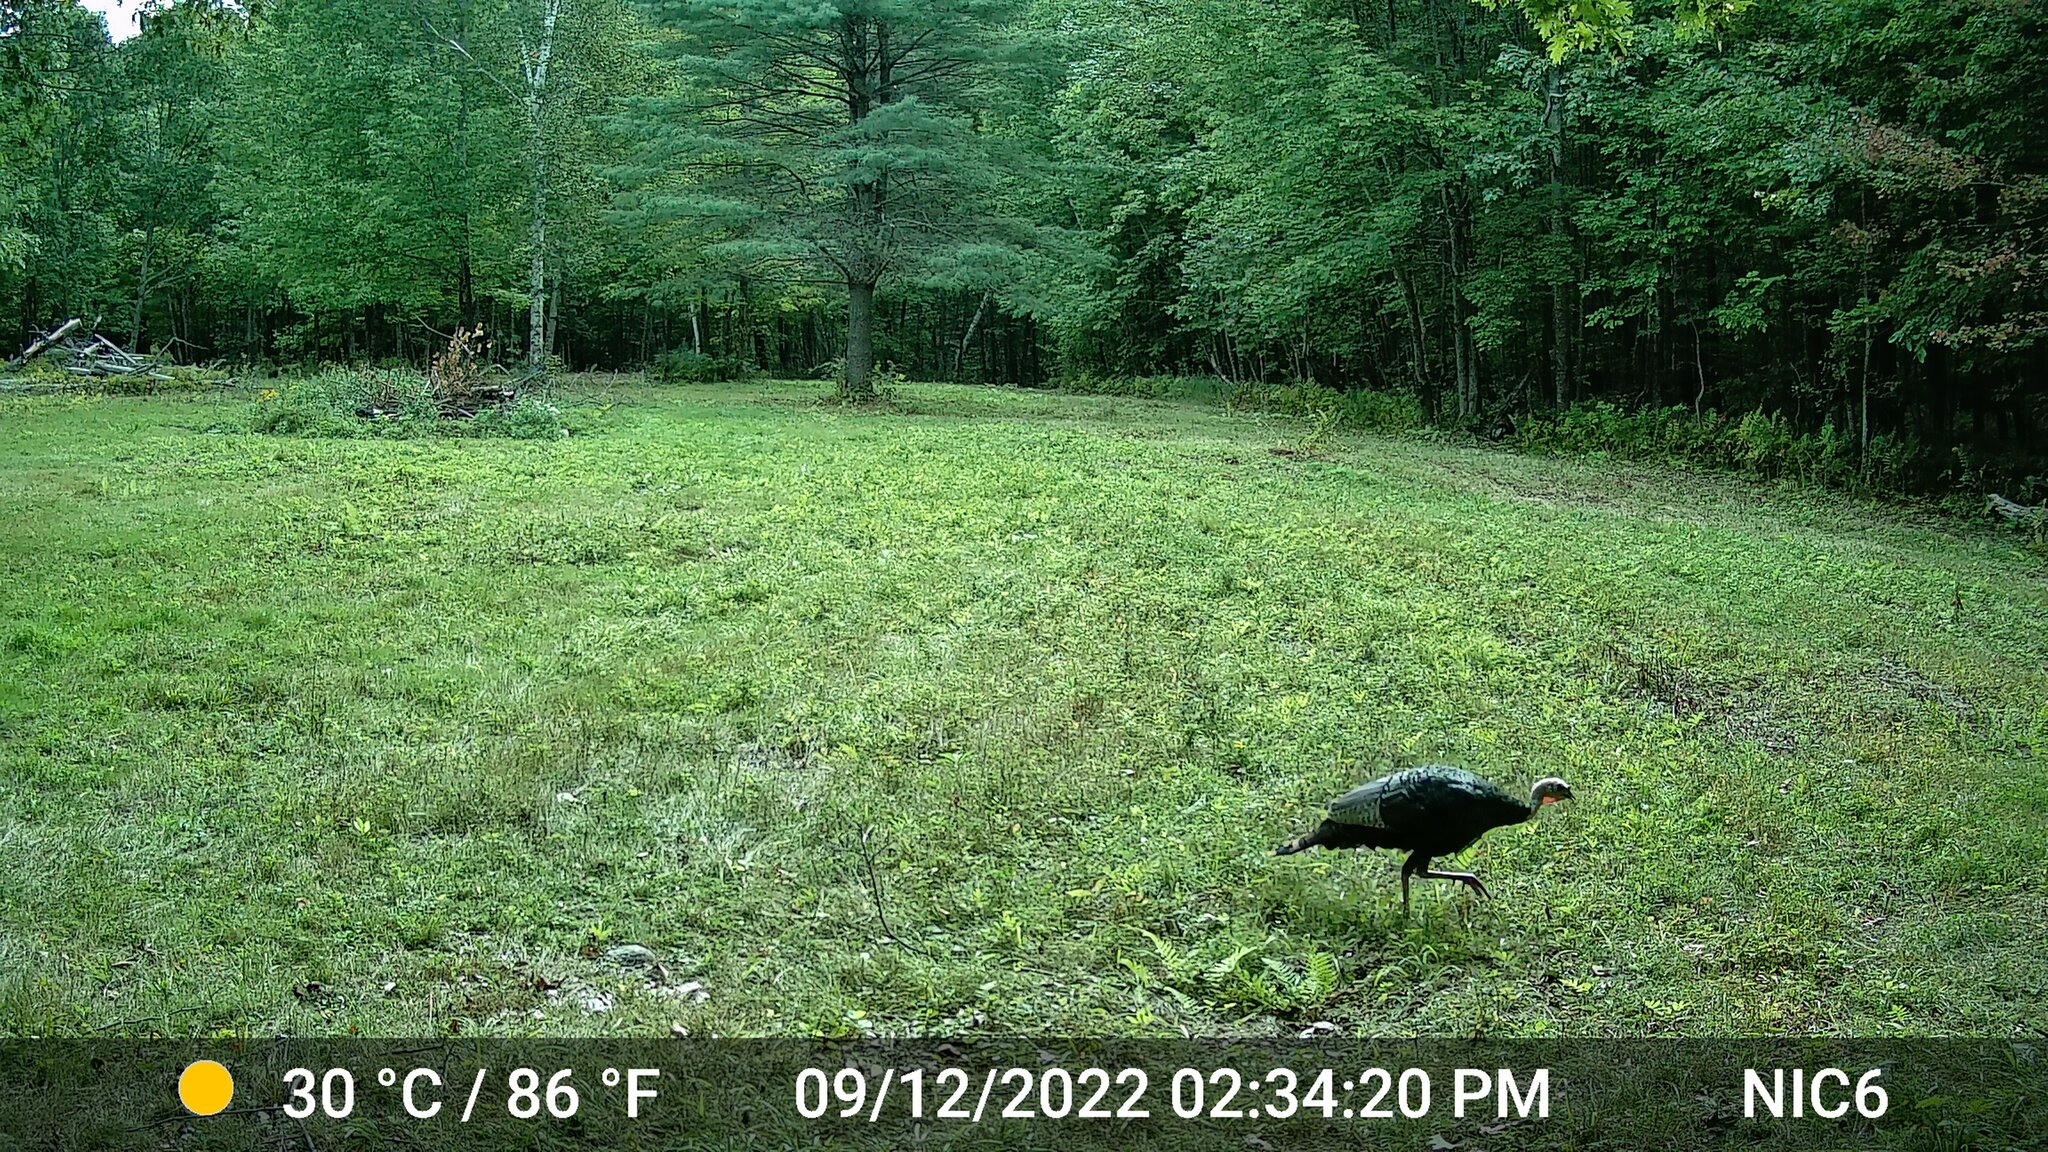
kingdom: Animalia
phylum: Chordata
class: Aves
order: Galliformes
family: Phasianidae
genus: Meleagris
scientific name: Meleagris gallopavo
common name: Wild turkey
